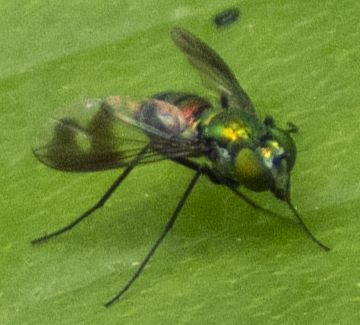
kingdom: Animalia
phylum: Arthropoda
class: Insecta
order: Diptera
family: Dolichopodidae
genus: Condylostylus
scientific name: Condylostylus patibulatus
